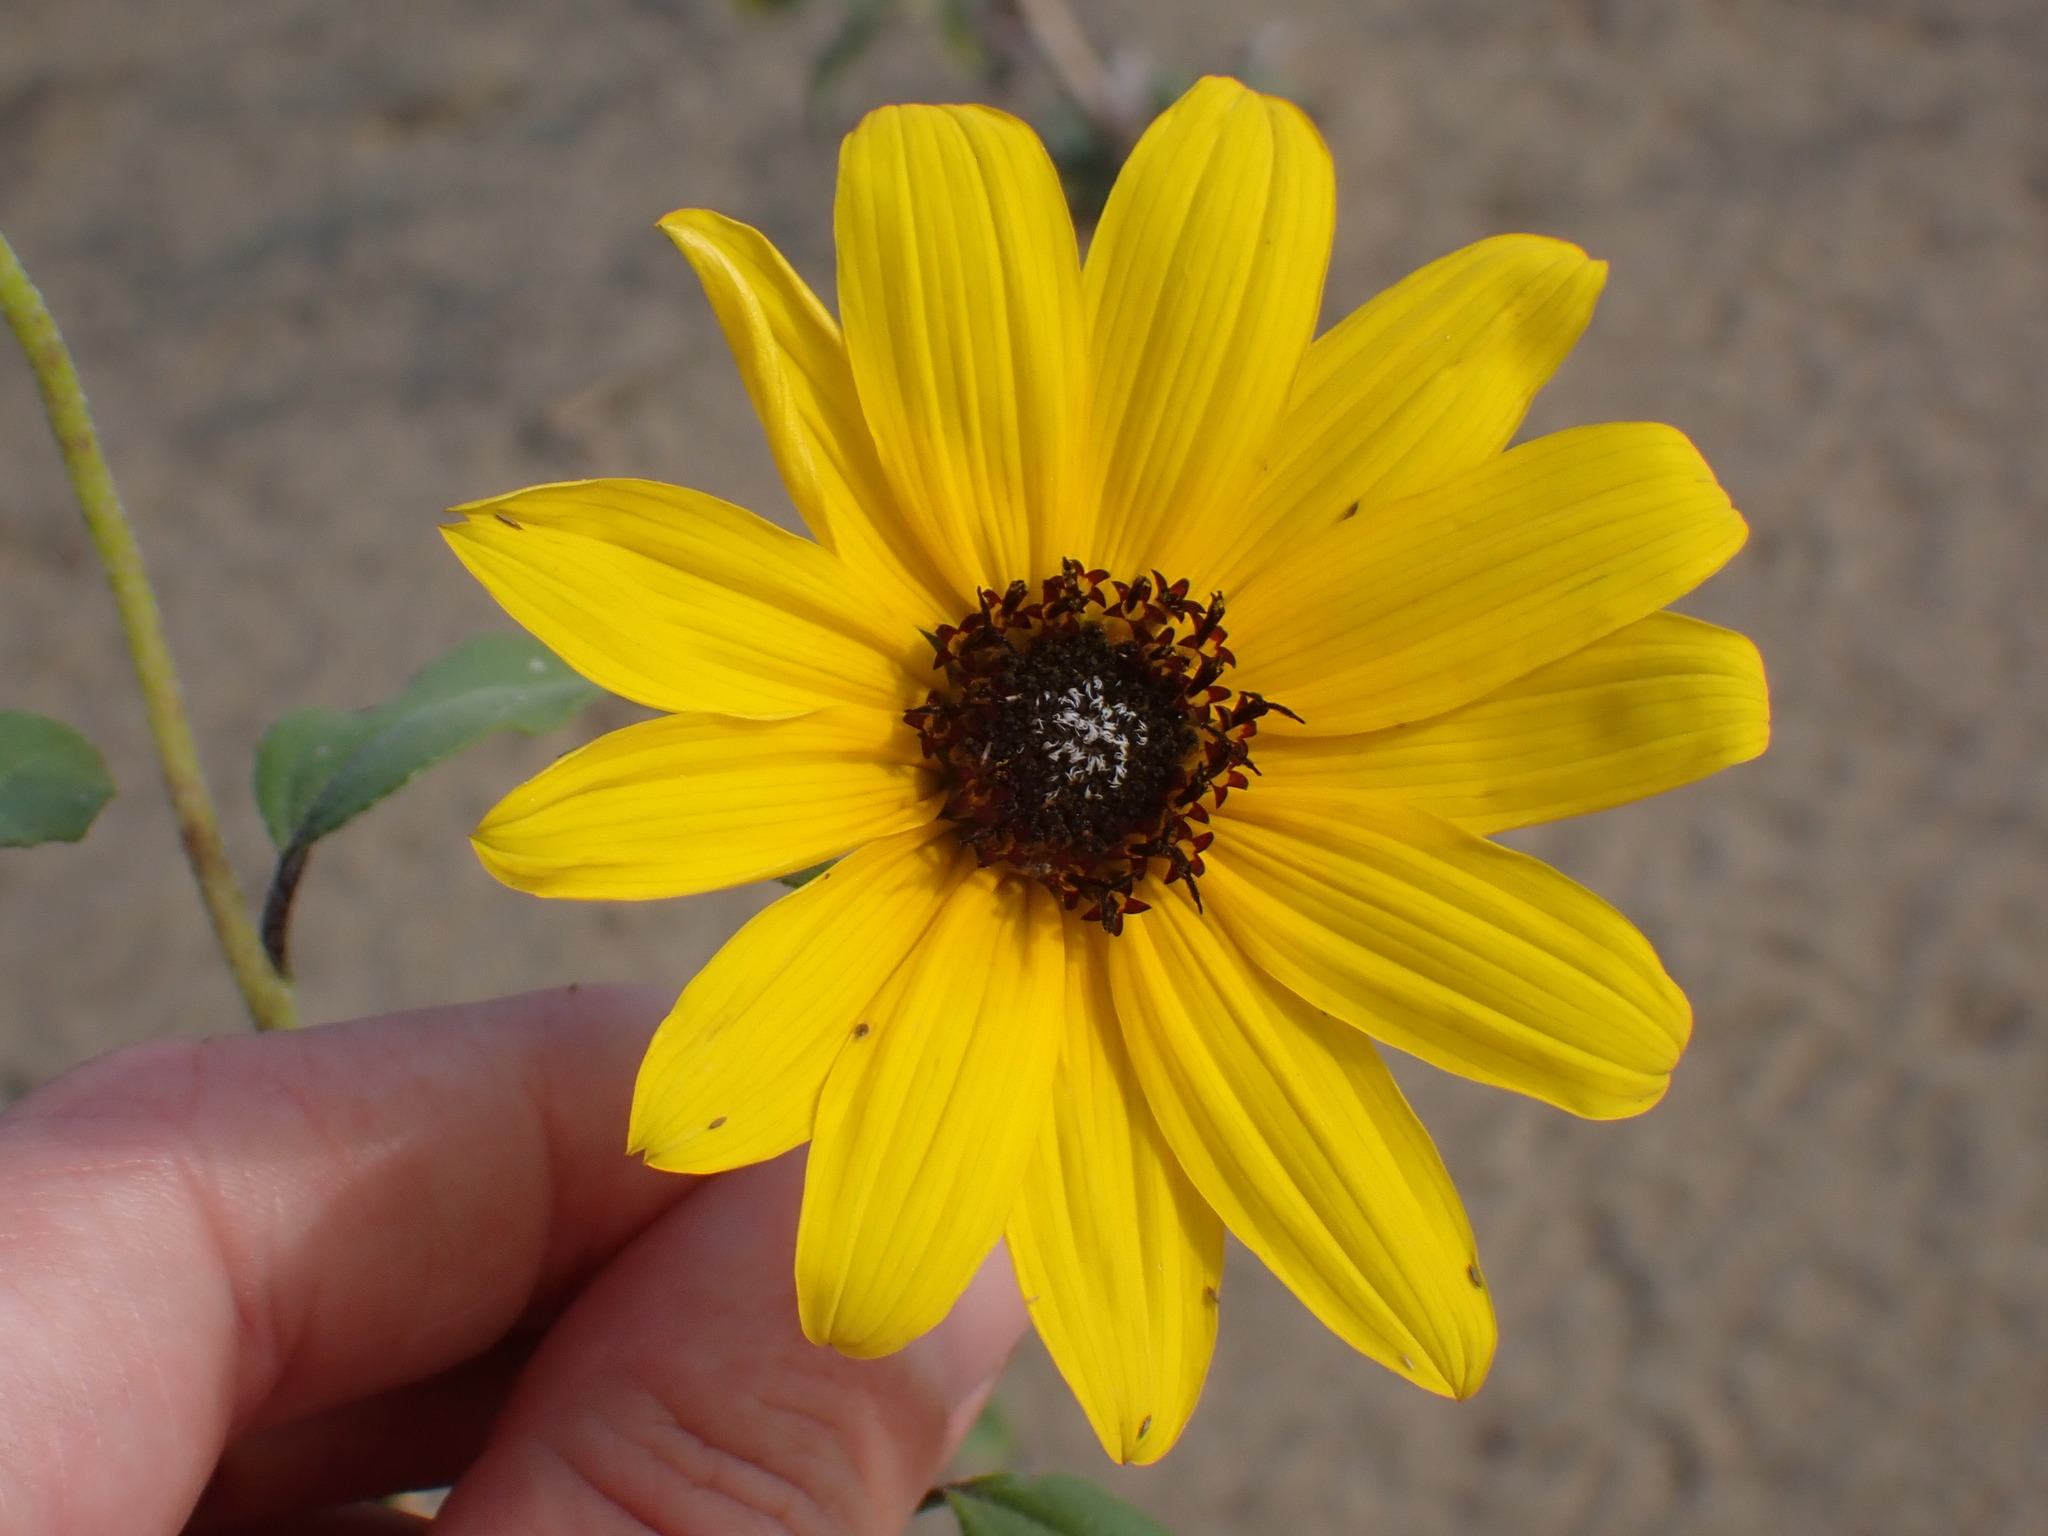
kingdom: Plantae
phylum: Tracheophyta
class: Magnoliopsida
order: Asterales
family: Asteraceae
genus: Helianthus
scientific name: Helianthus petiolaris
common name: Lesser sunflower
